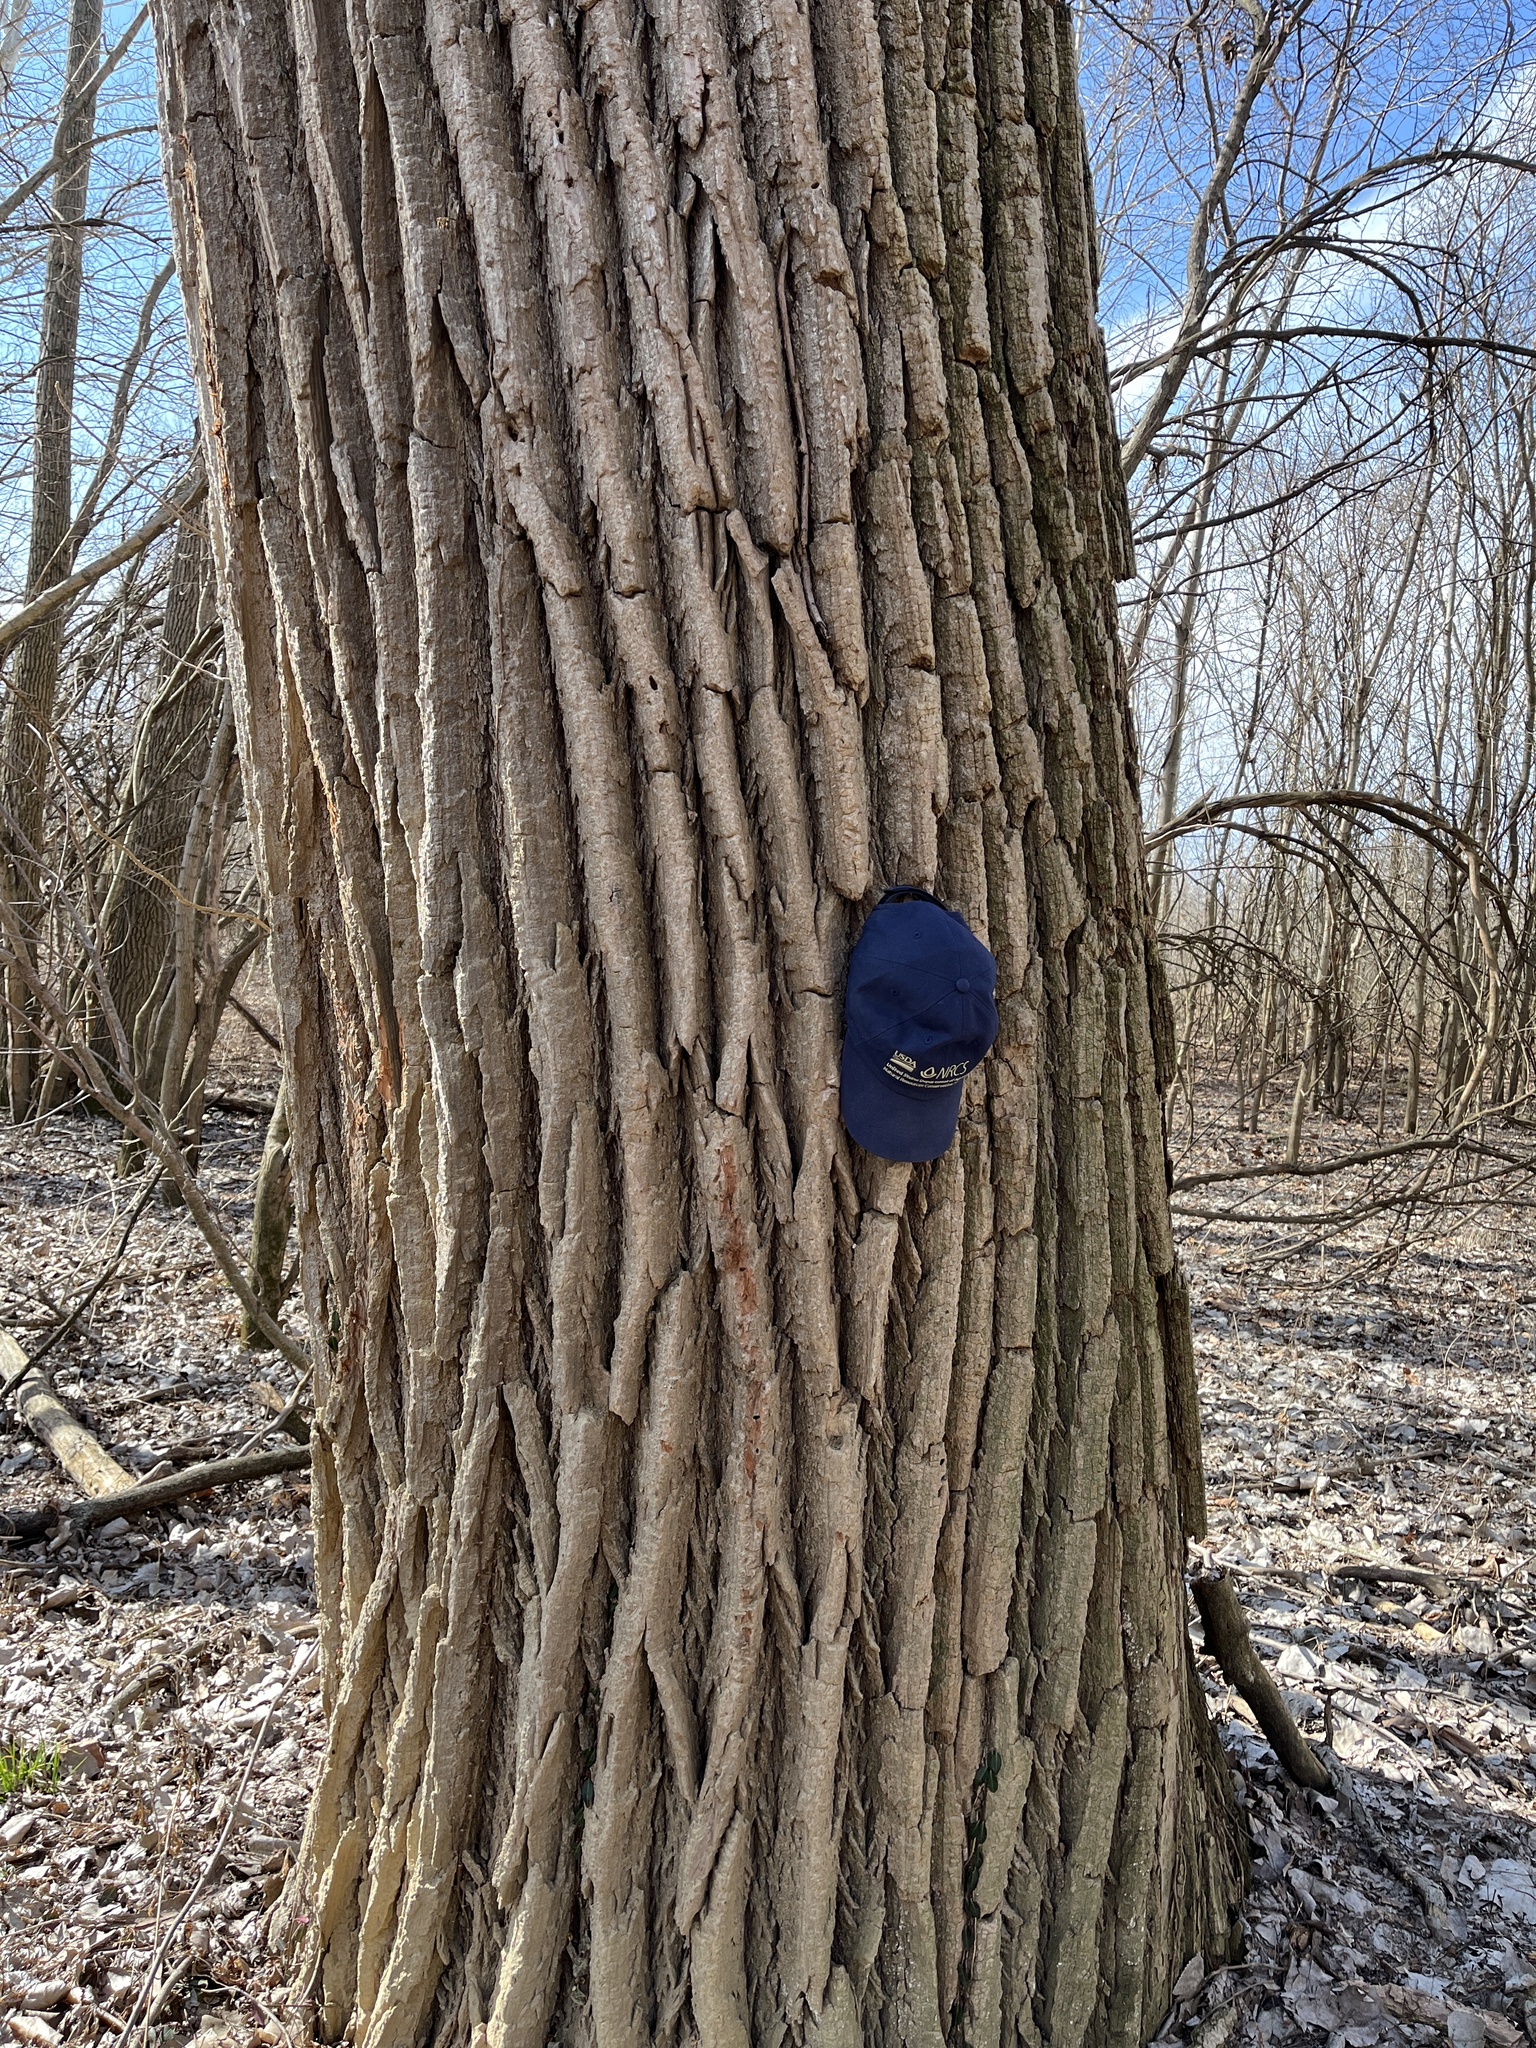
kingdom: Plantae
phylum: Tracheophyta
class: Magnoliopsida
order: Malpighiales
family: Salicaceae
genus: Populus
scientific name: Populus deltoides
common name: Eastern cottonwood
